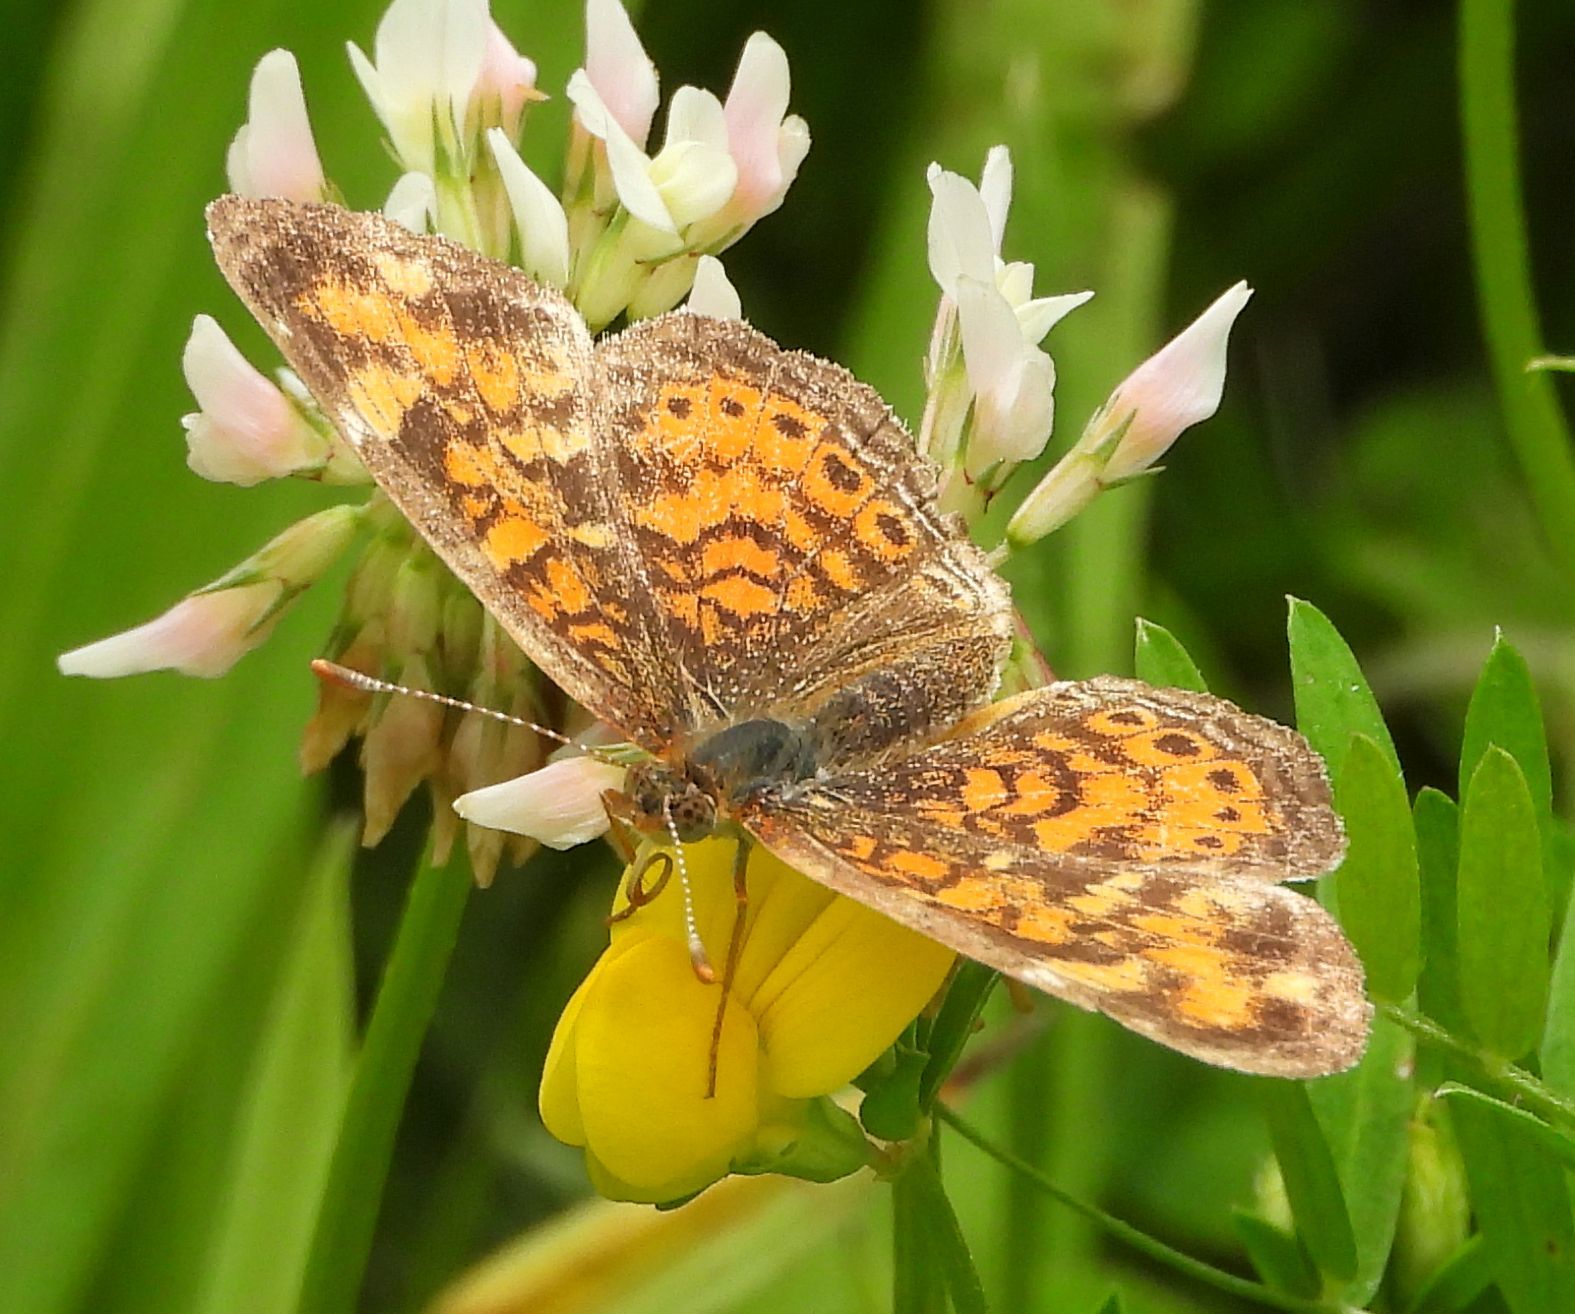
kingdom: Animalia
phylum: Arthropoda
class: Insecta
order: Lepidoptera
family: Nymphalidae
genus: Phyciodes
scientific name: Phyciodes tharos
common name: Pearl crescent
